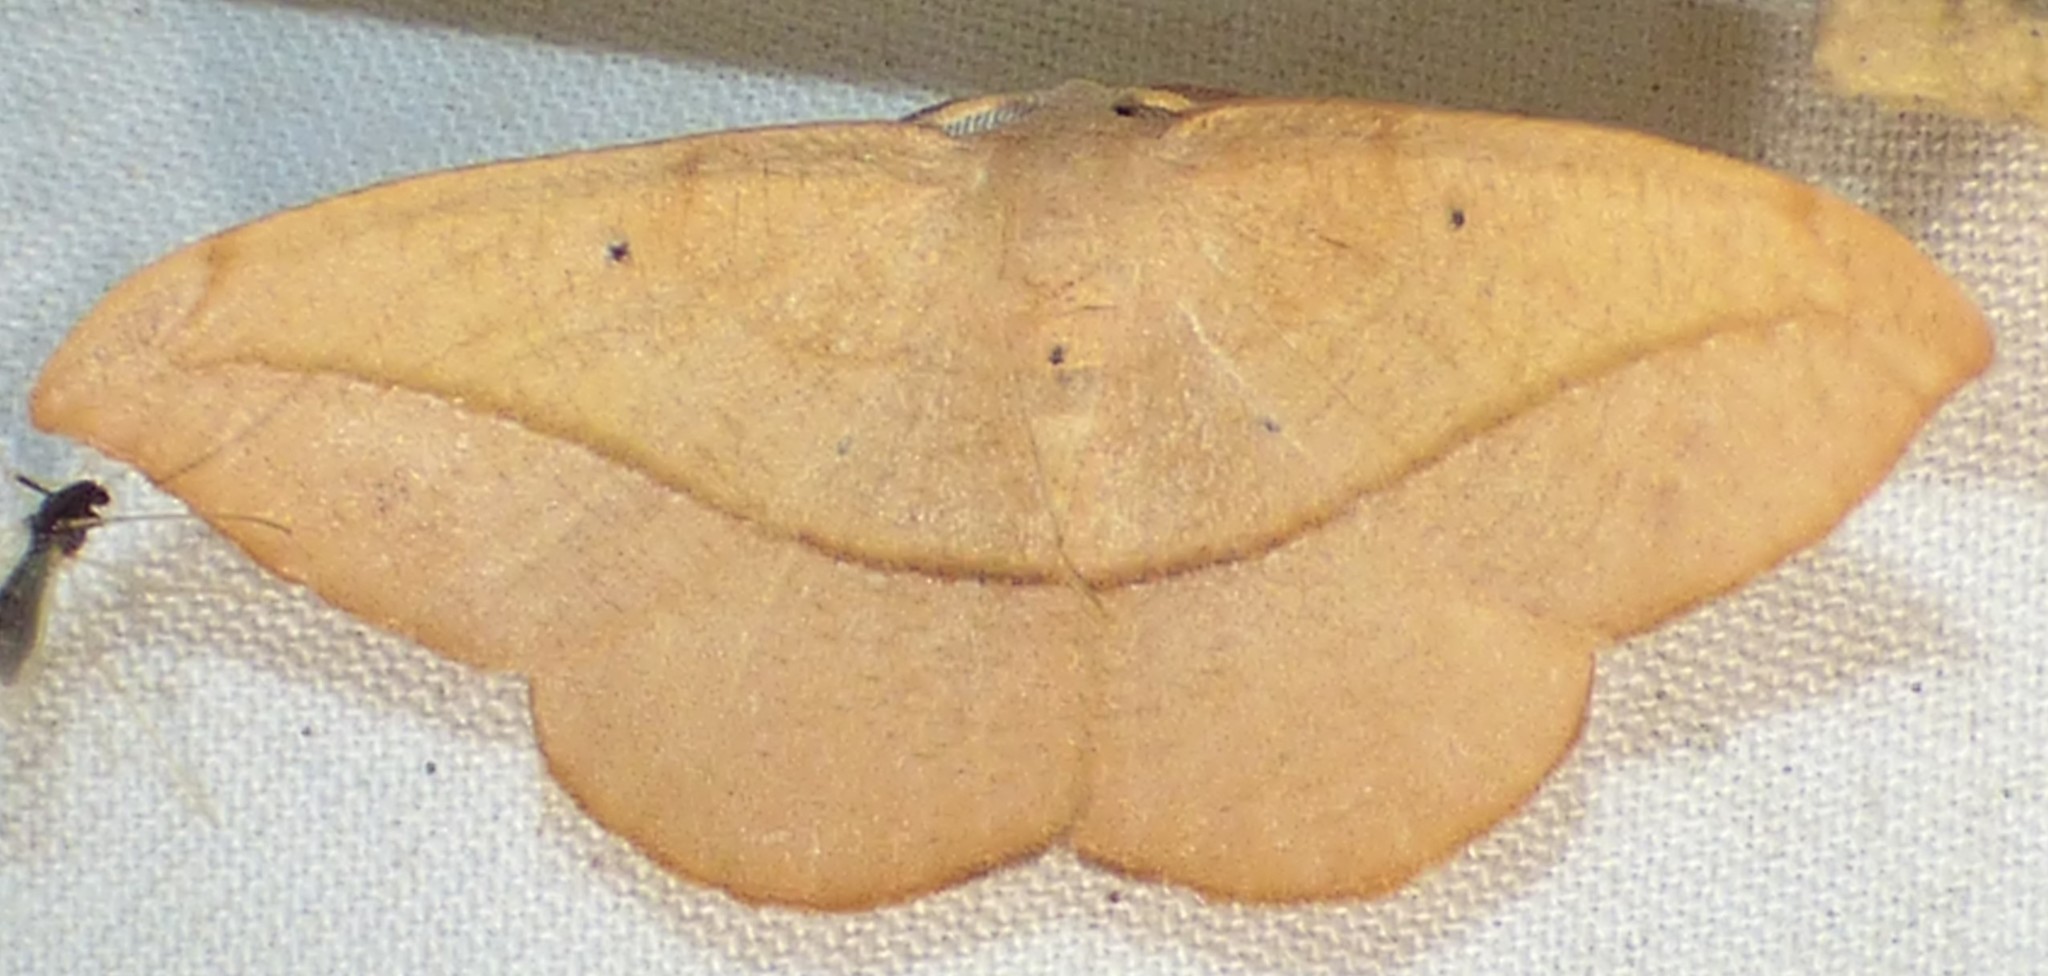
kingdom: Animalia
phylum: Arthropoda
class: Insecta
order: Lepidoptera
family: Geometridae
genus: Patalene
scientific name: Patalene olyzonaria
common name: Juniper geometer moth
